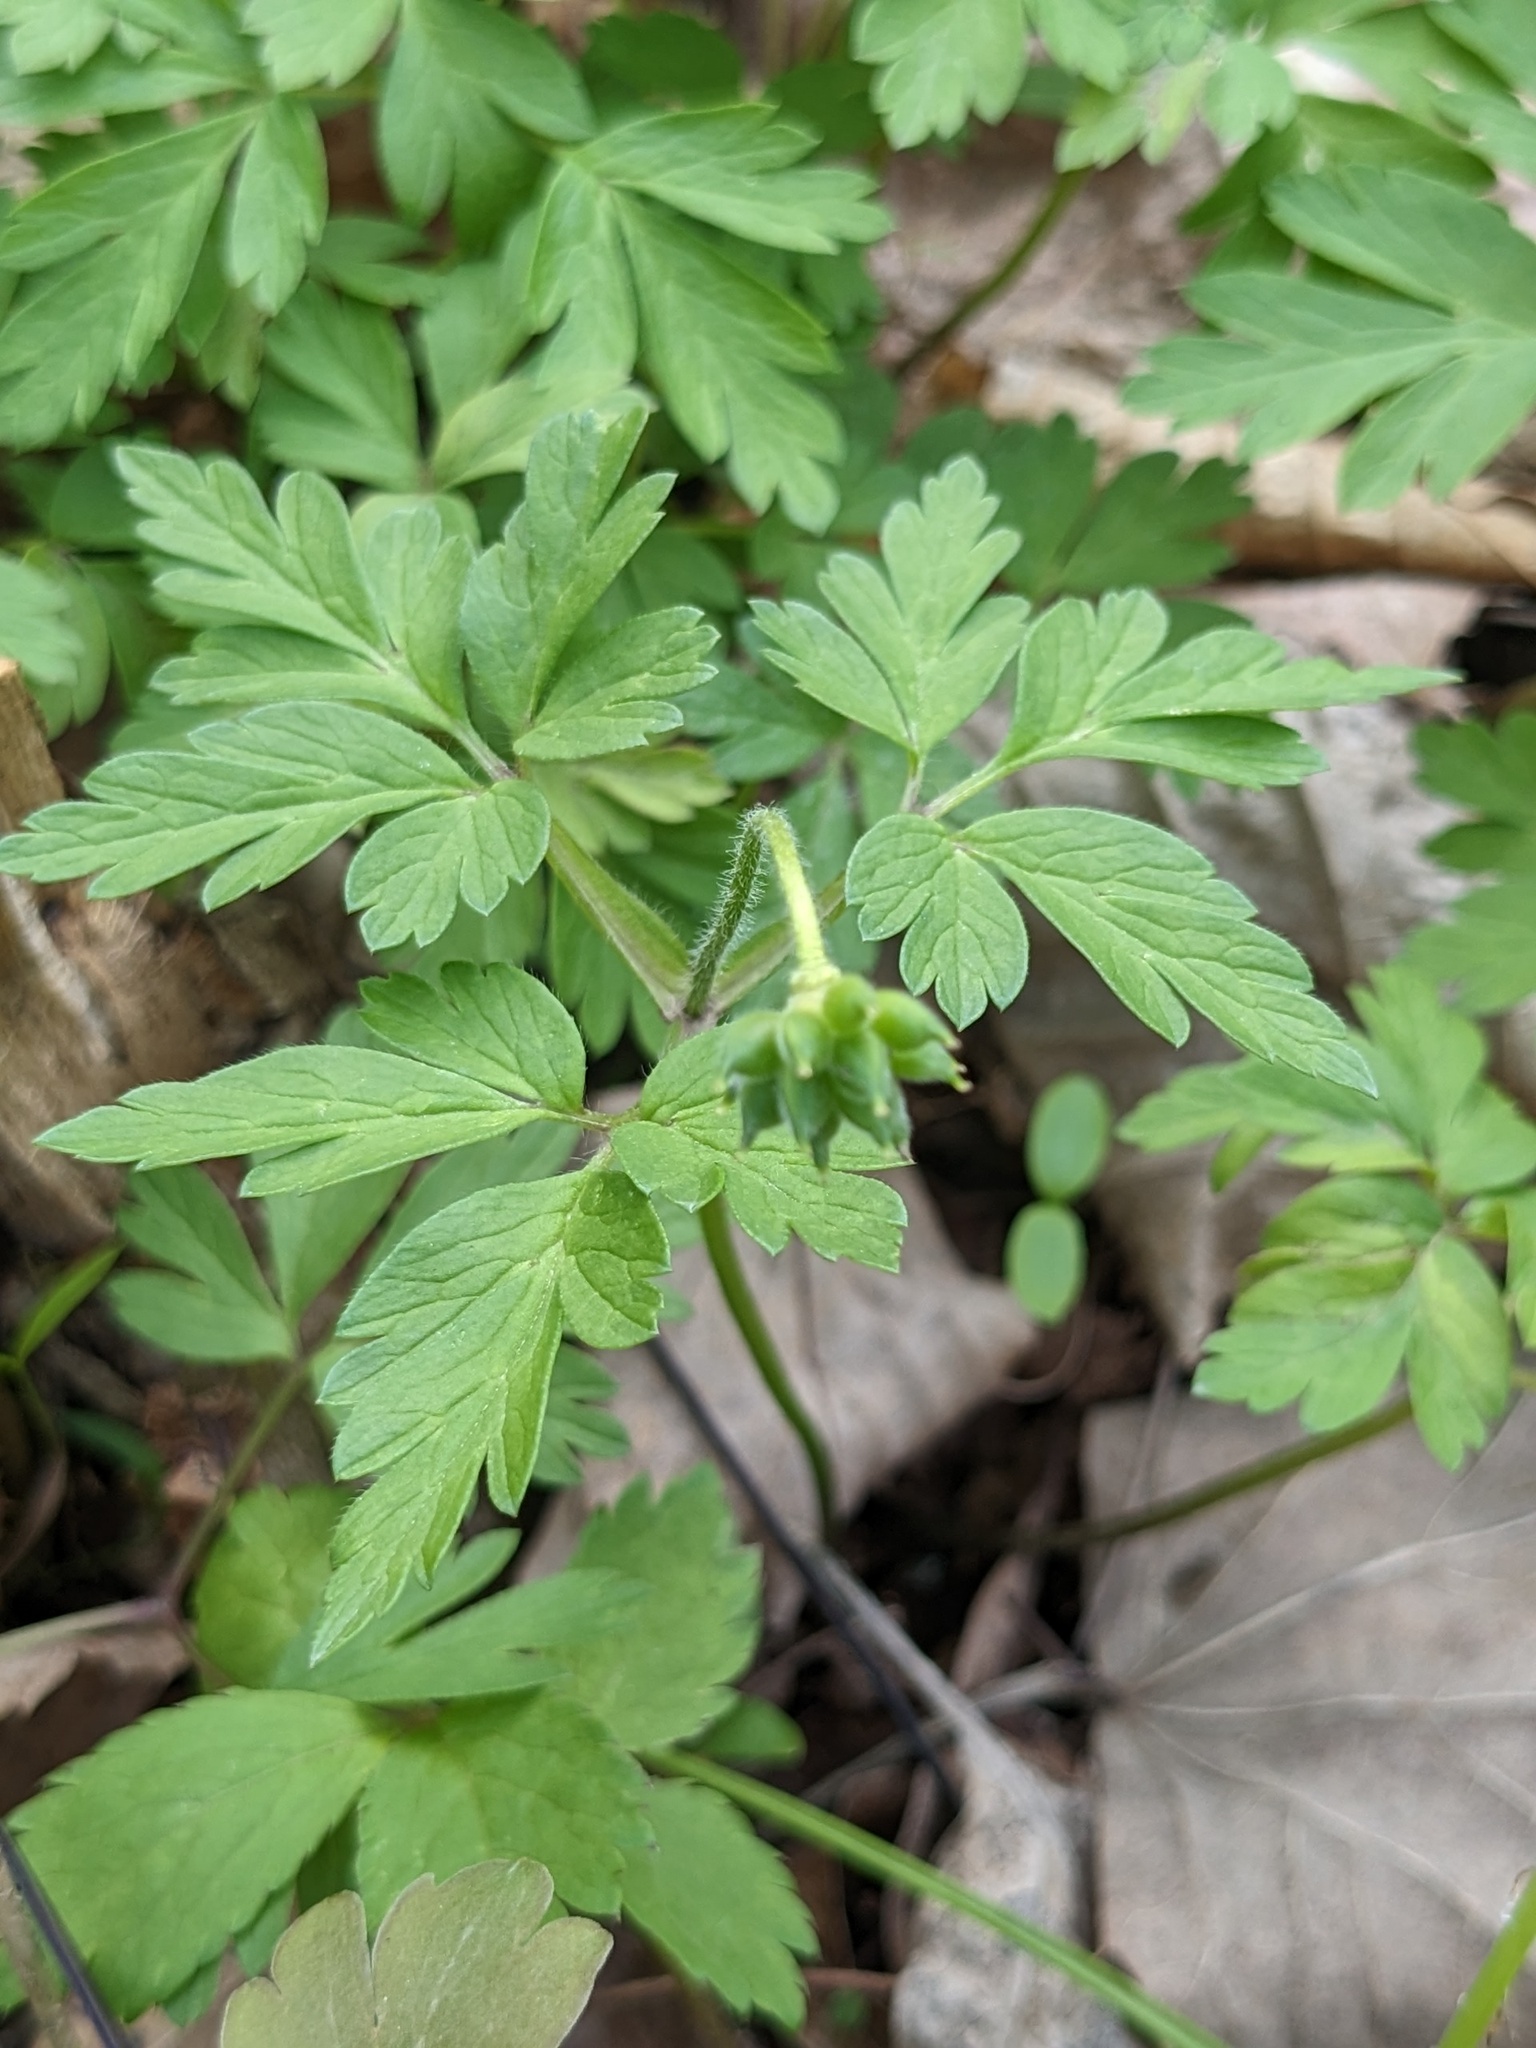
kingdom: Plantae
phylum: Tracheophyta
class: Magnoliopsida
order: Ranunculales
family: Ranunculaceae
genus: Anemone
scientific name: Anemone amurensis
